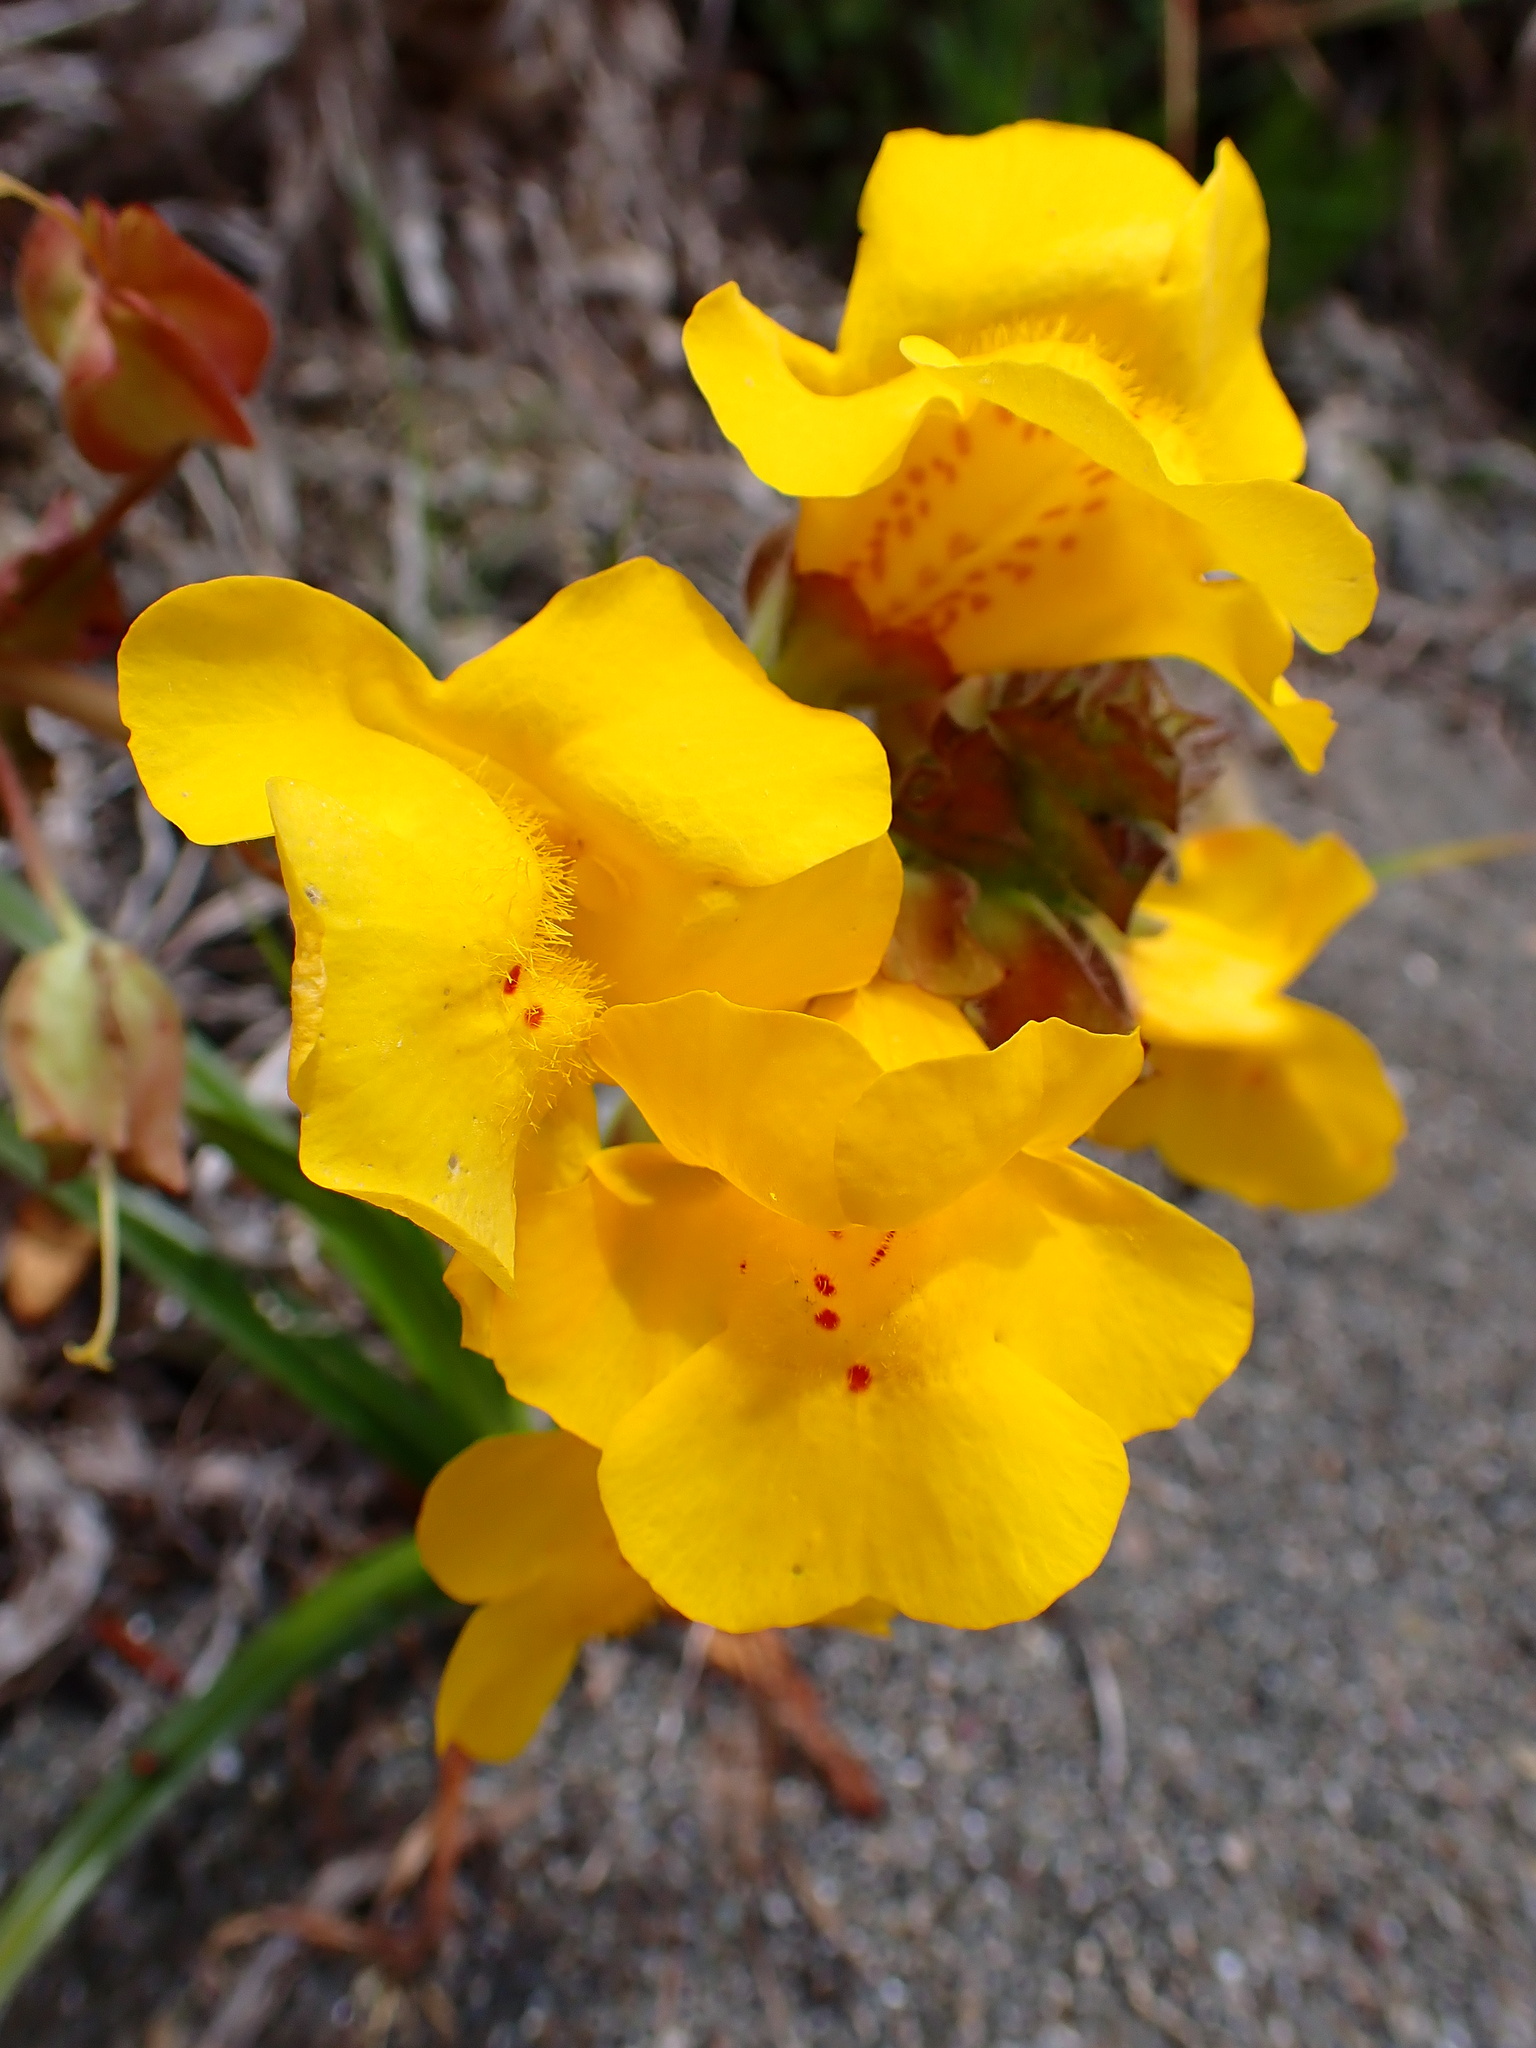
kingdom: Plantae
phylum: Tracheophyta
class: Magnoliopsida
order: Lamiales
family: Phrymaceae
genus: Erythranthe
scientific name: Erythranthe grandis
